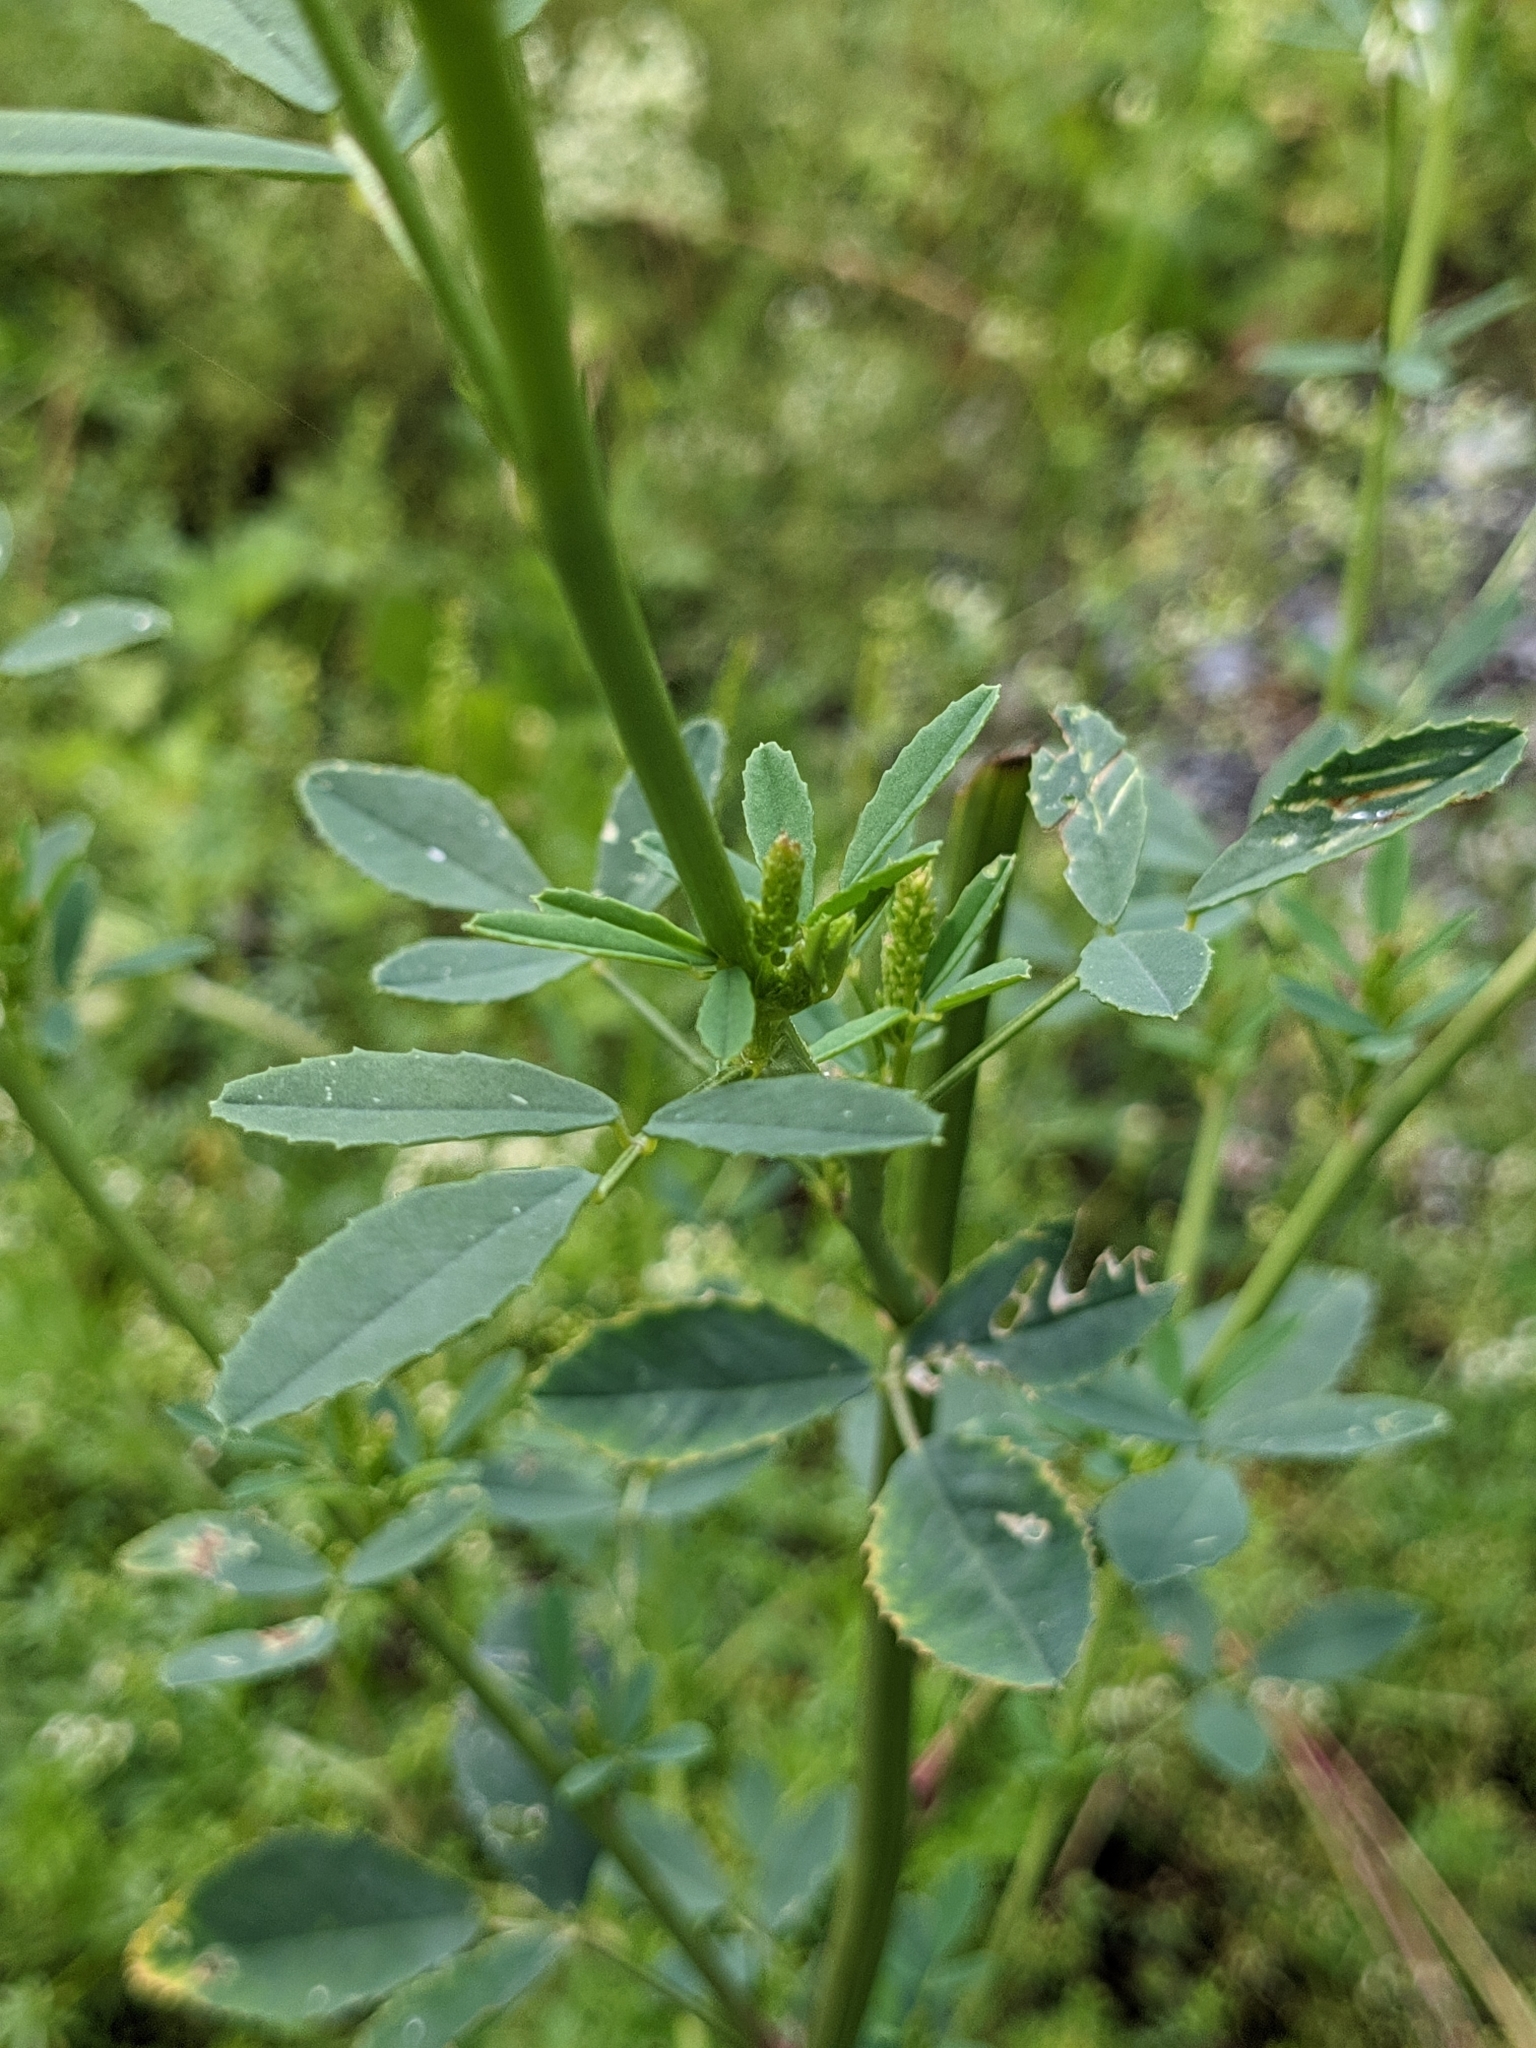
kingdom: Plantae
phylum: Tracheophyta
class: Magnoliopsida
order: Fabales
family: Fabaceae
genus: Melilotus
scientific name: Melilotus albus
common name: White melilot
